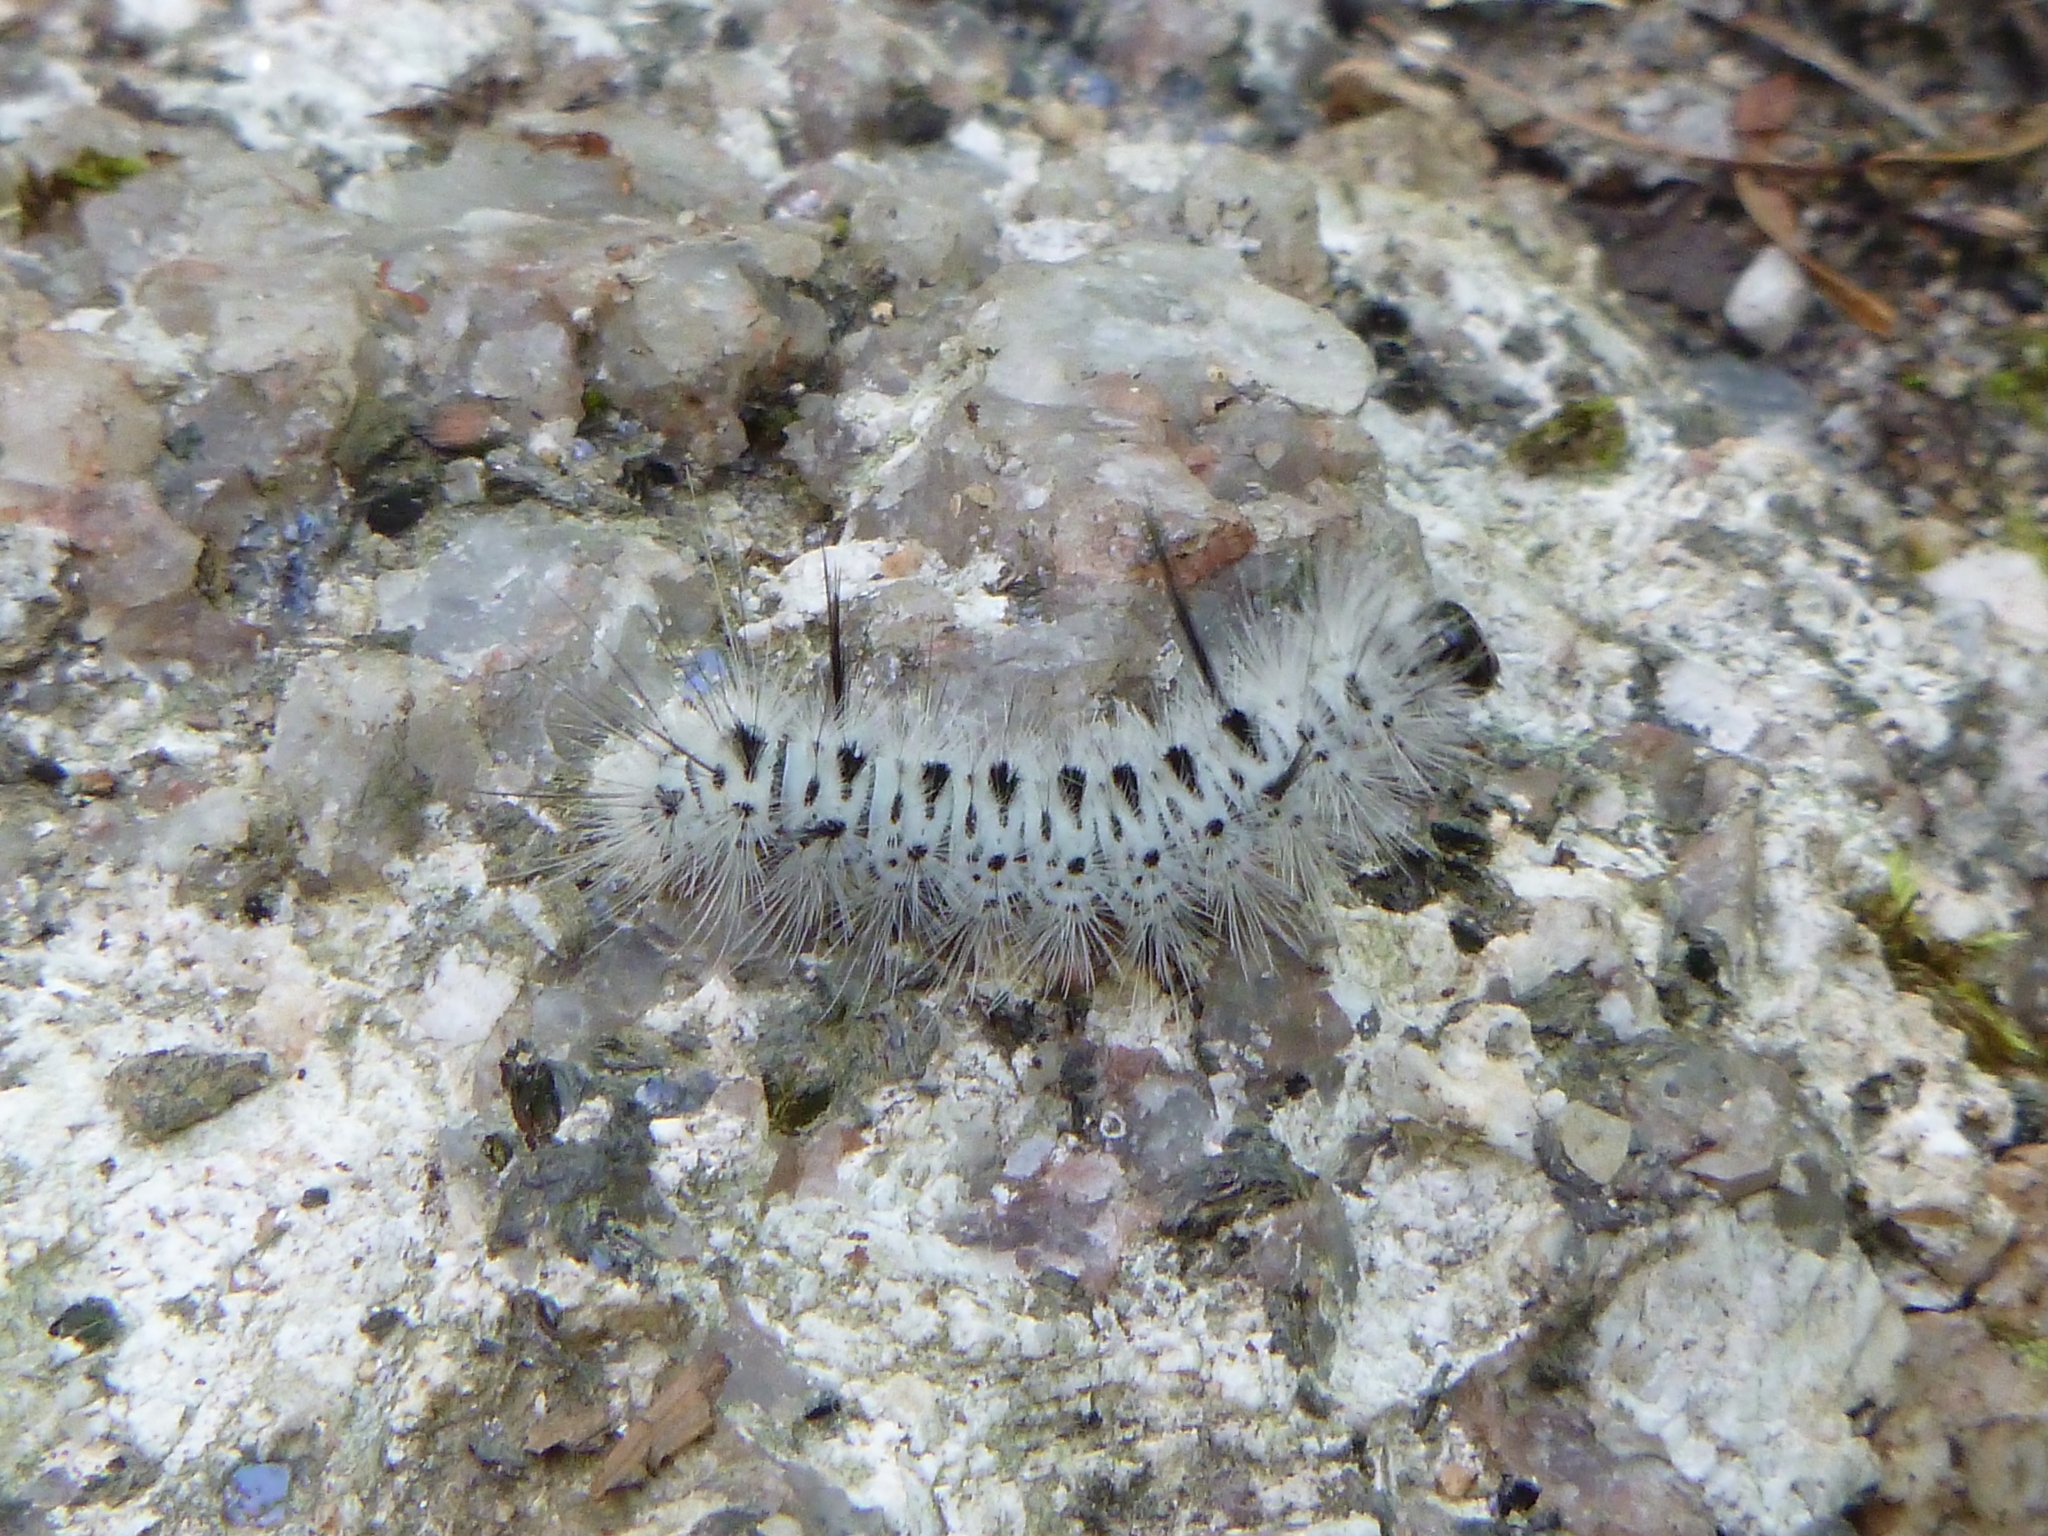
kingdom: Animalia
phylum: Arthropoda
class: Insecta
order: Lepidoptera
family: Erebidae
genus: Lophocampa
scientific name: Lophocampa caryae
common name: Hickory tussock moth
